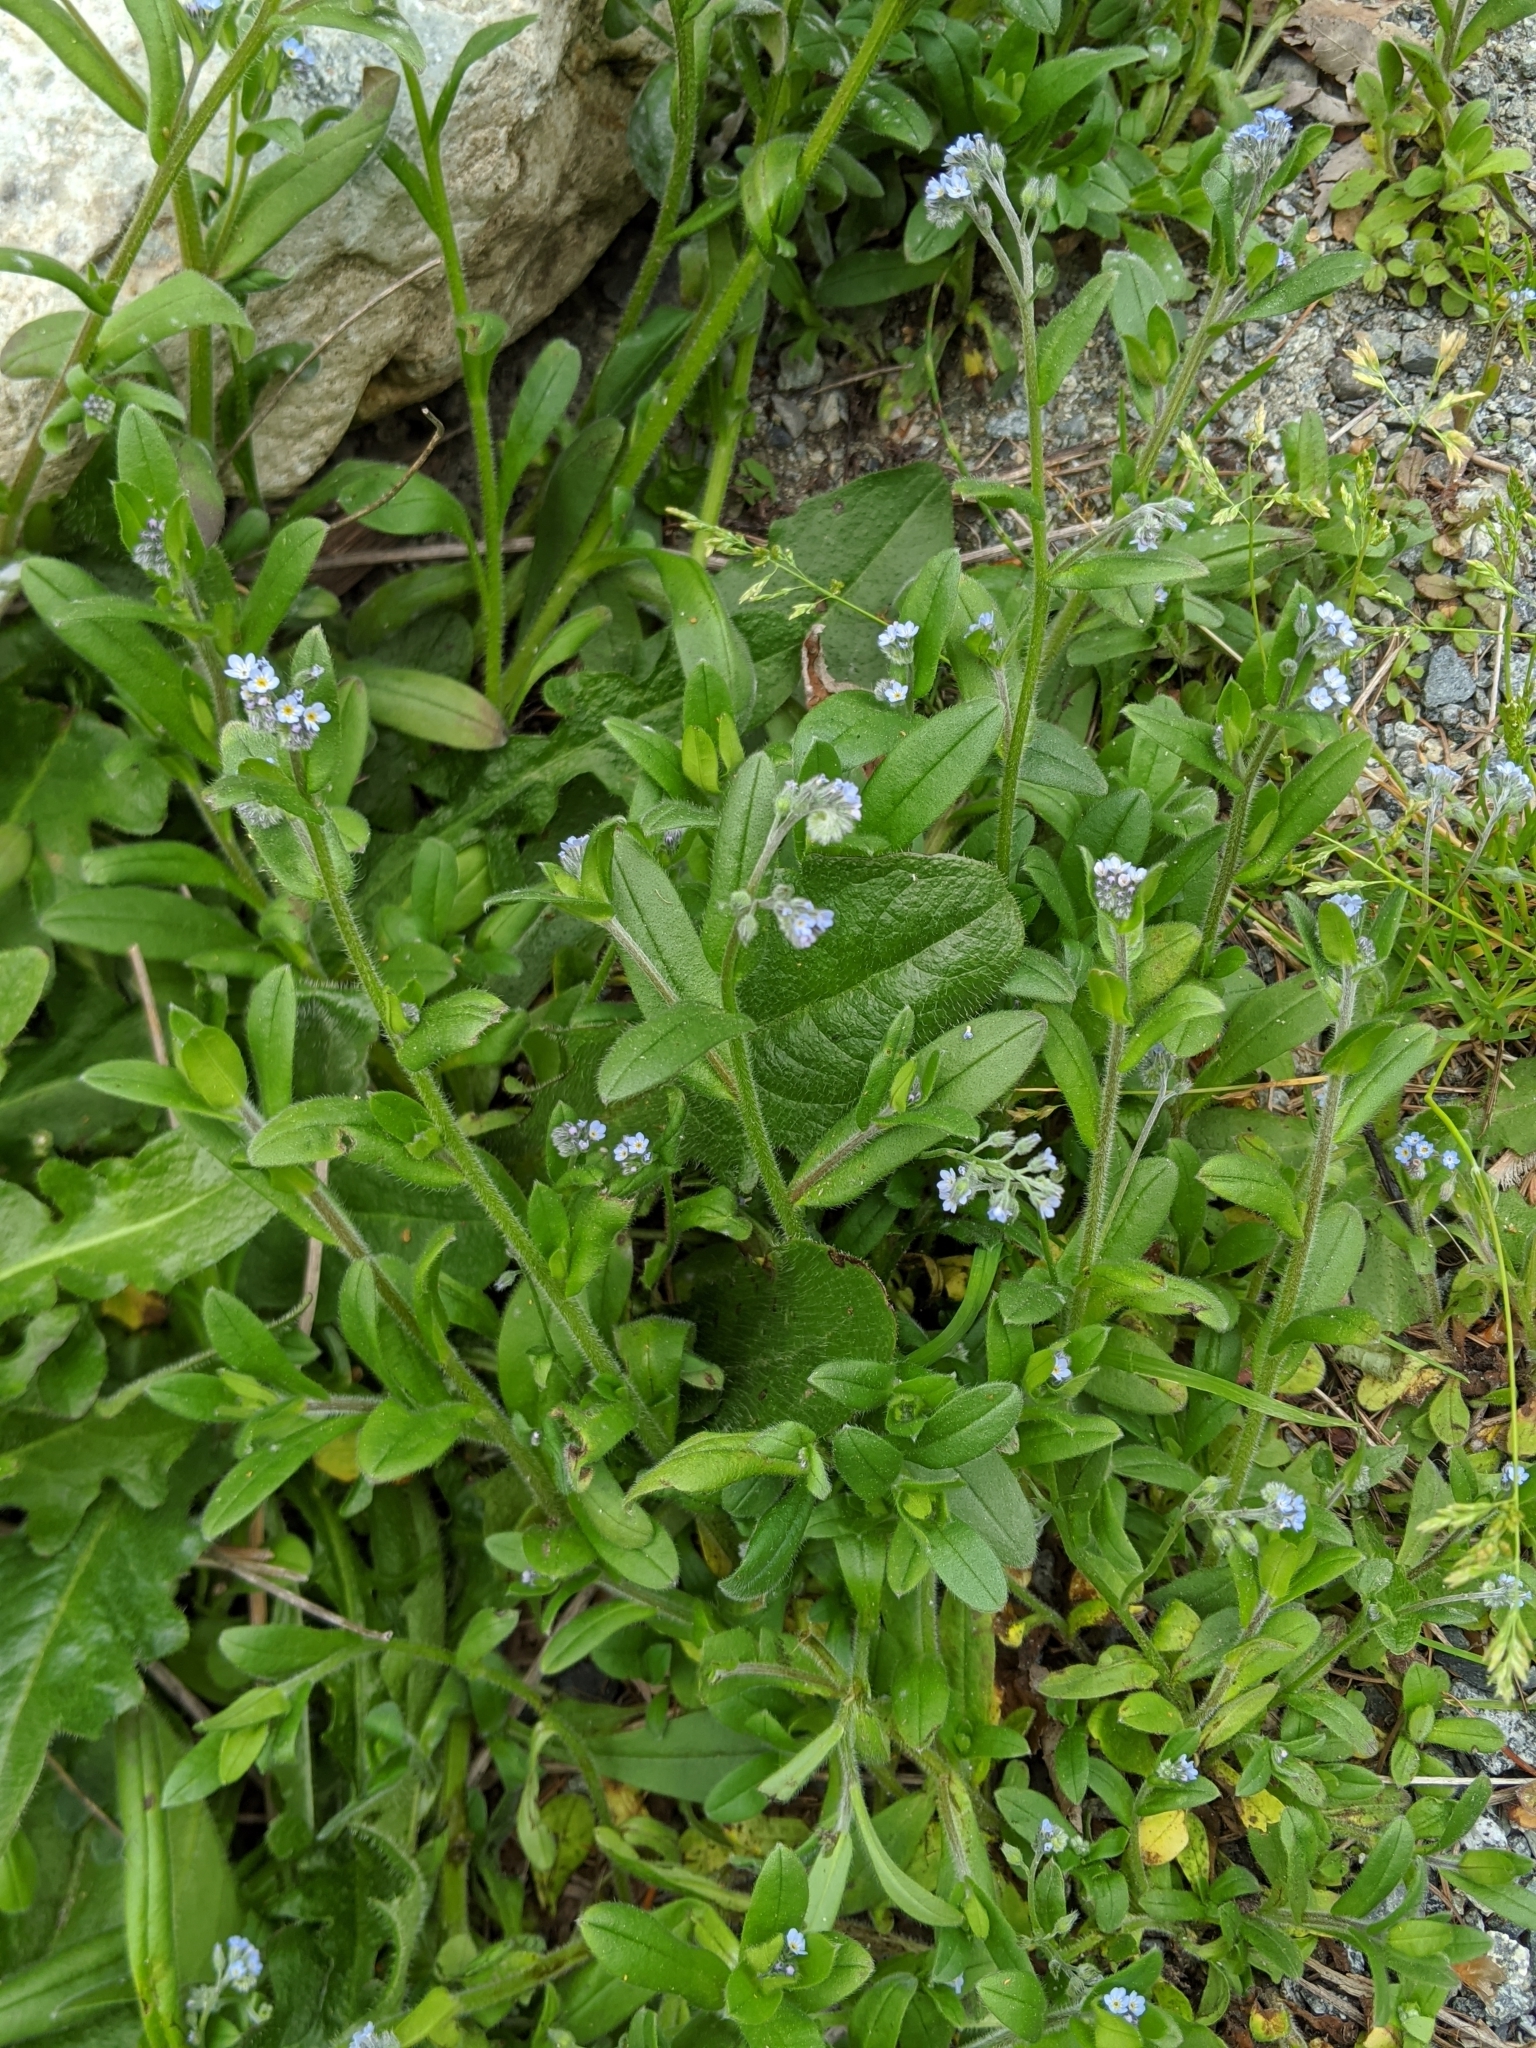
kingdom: Plantae
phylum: Tracheophyta
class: Magnoliopsida
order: Boraginales
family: Boraginaceae
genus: Myosotis
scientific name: Myosotis arvensis
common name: Field forget-me-not
